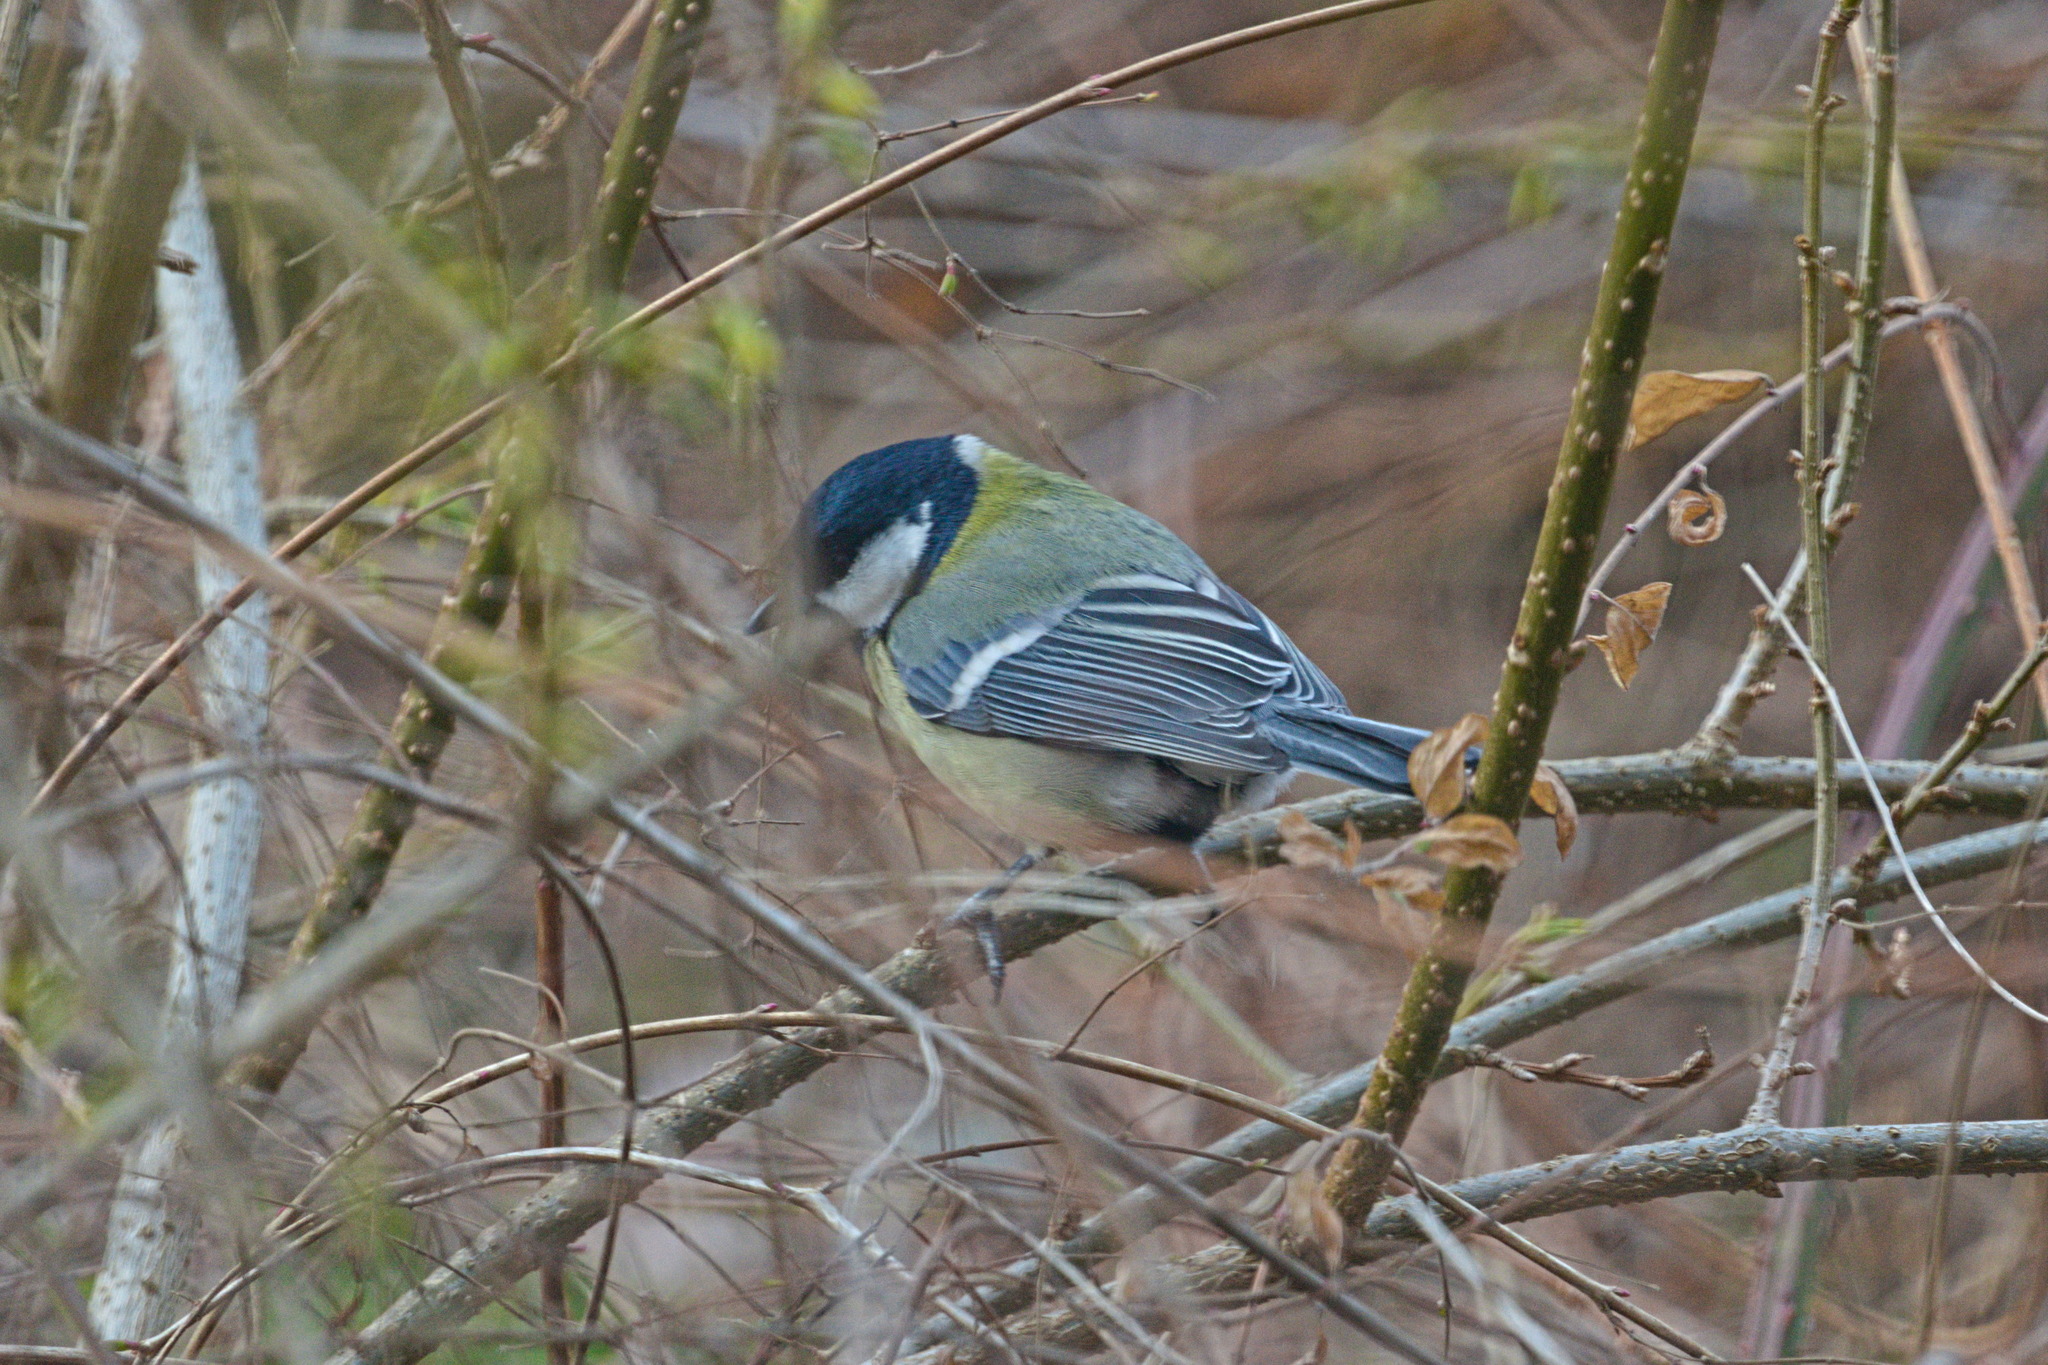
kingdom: Animalia
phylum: Chordata
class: Aves
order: Passeriformes
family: Paridae
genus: Parus
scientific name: Parus major
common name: Great tit
